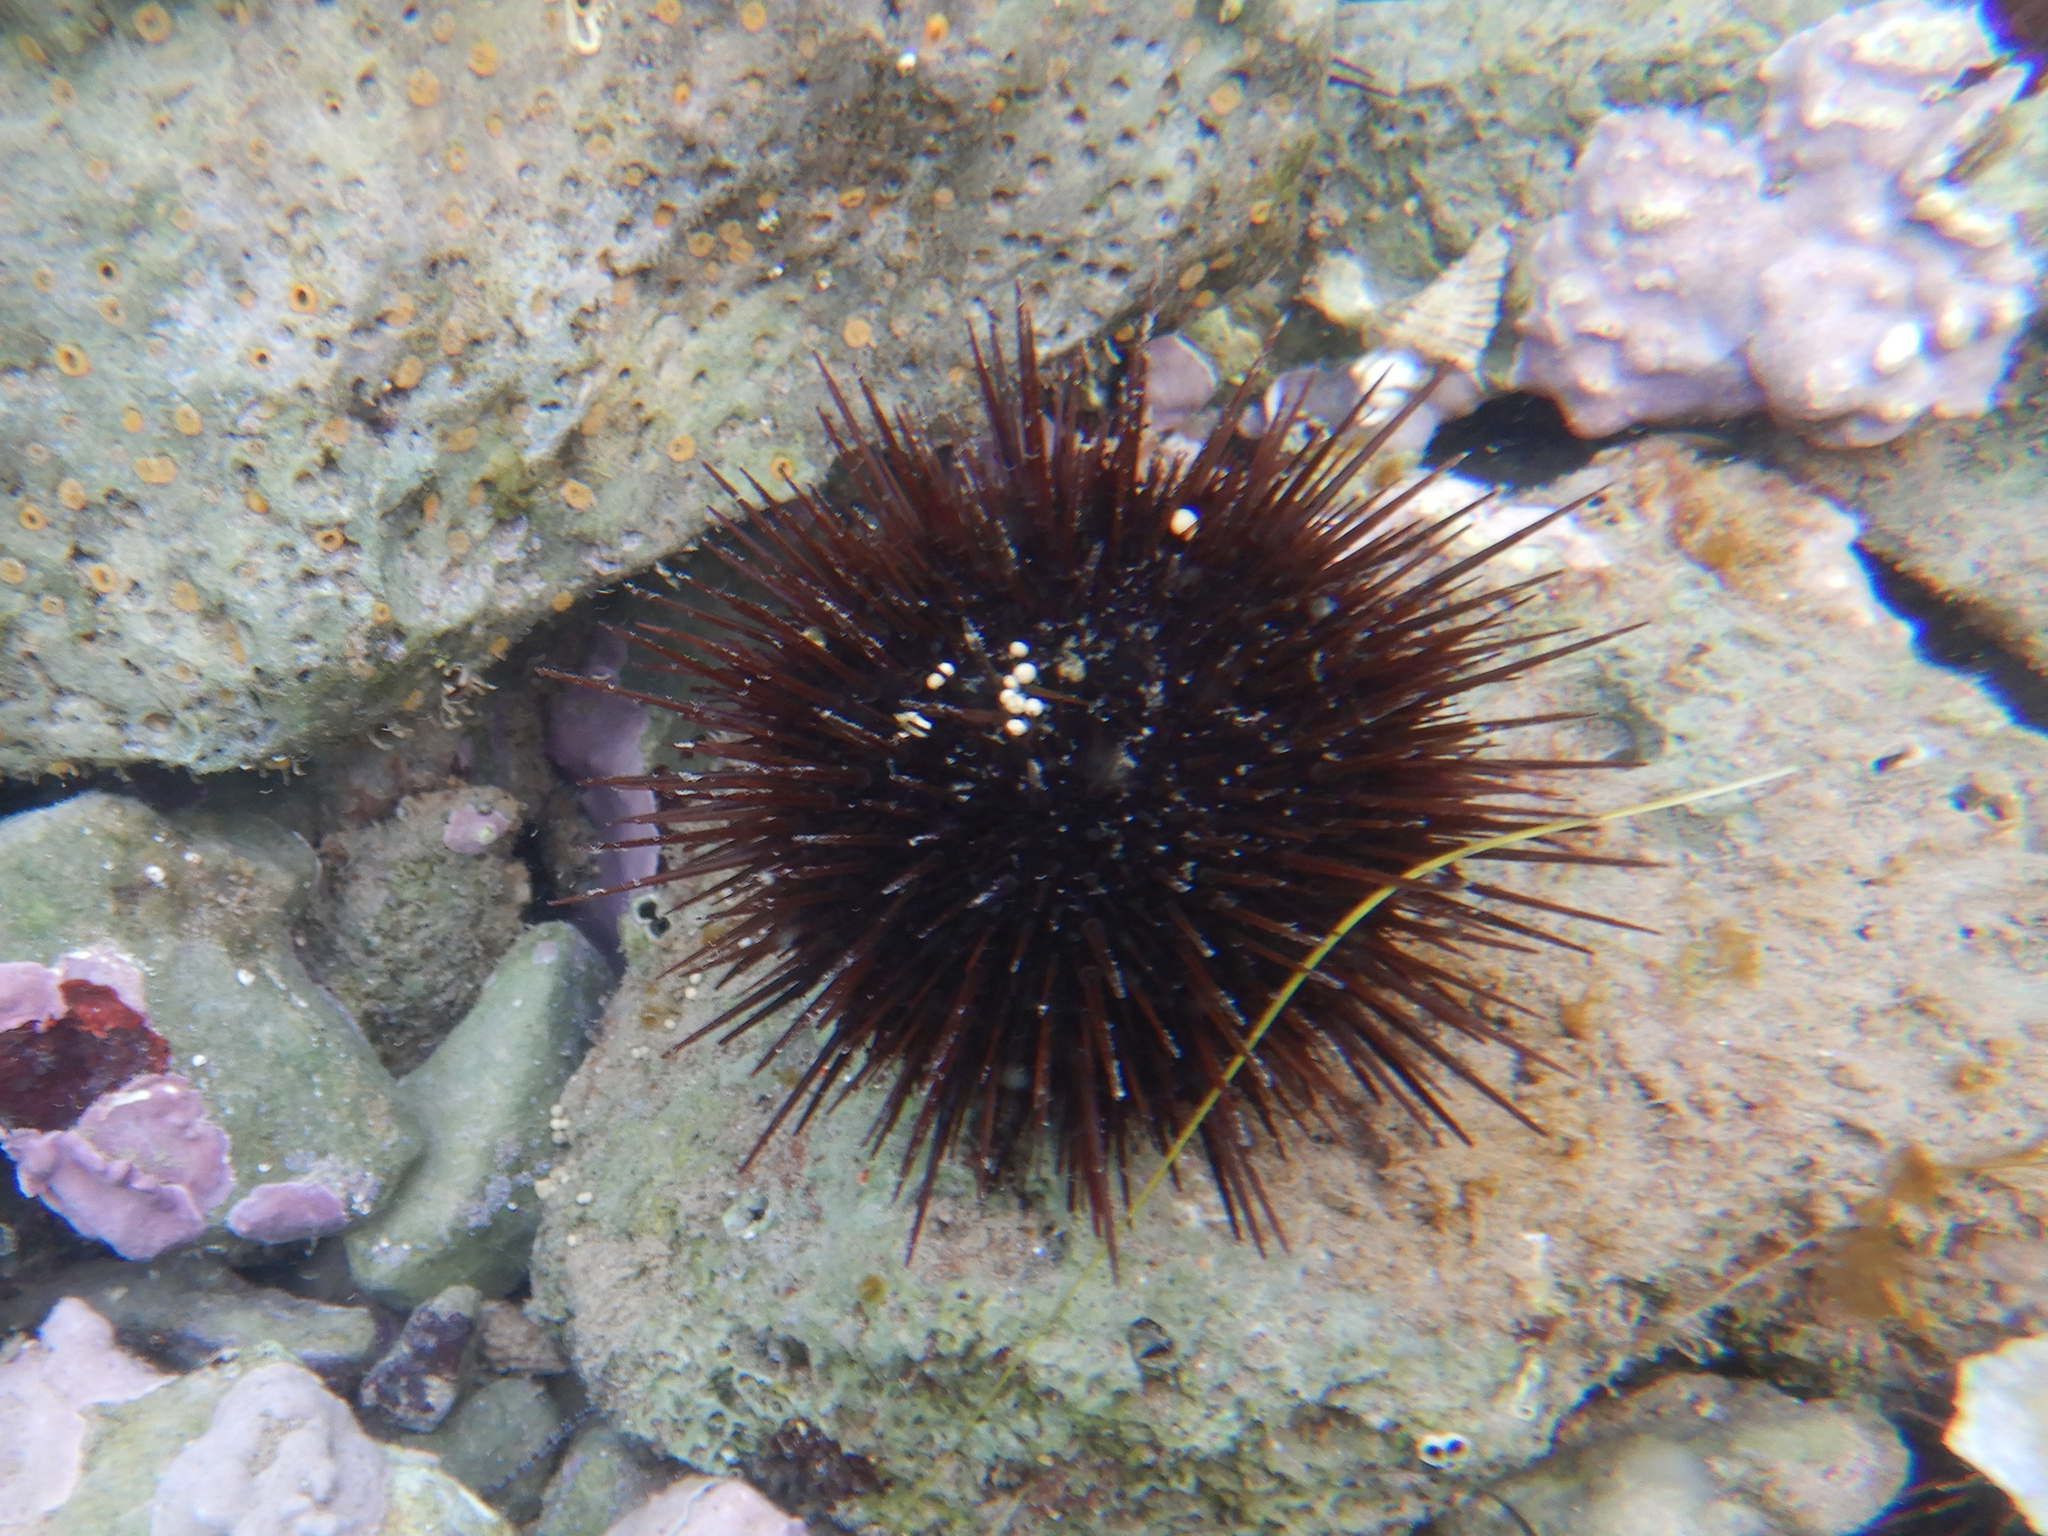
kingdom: Animalia
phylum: Echinodermata
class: Echinoidea
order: Camarodonta
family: Parechinidae
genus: Paracentrotus
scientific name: Paracentrotus lividus
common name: Purple sea urchin
